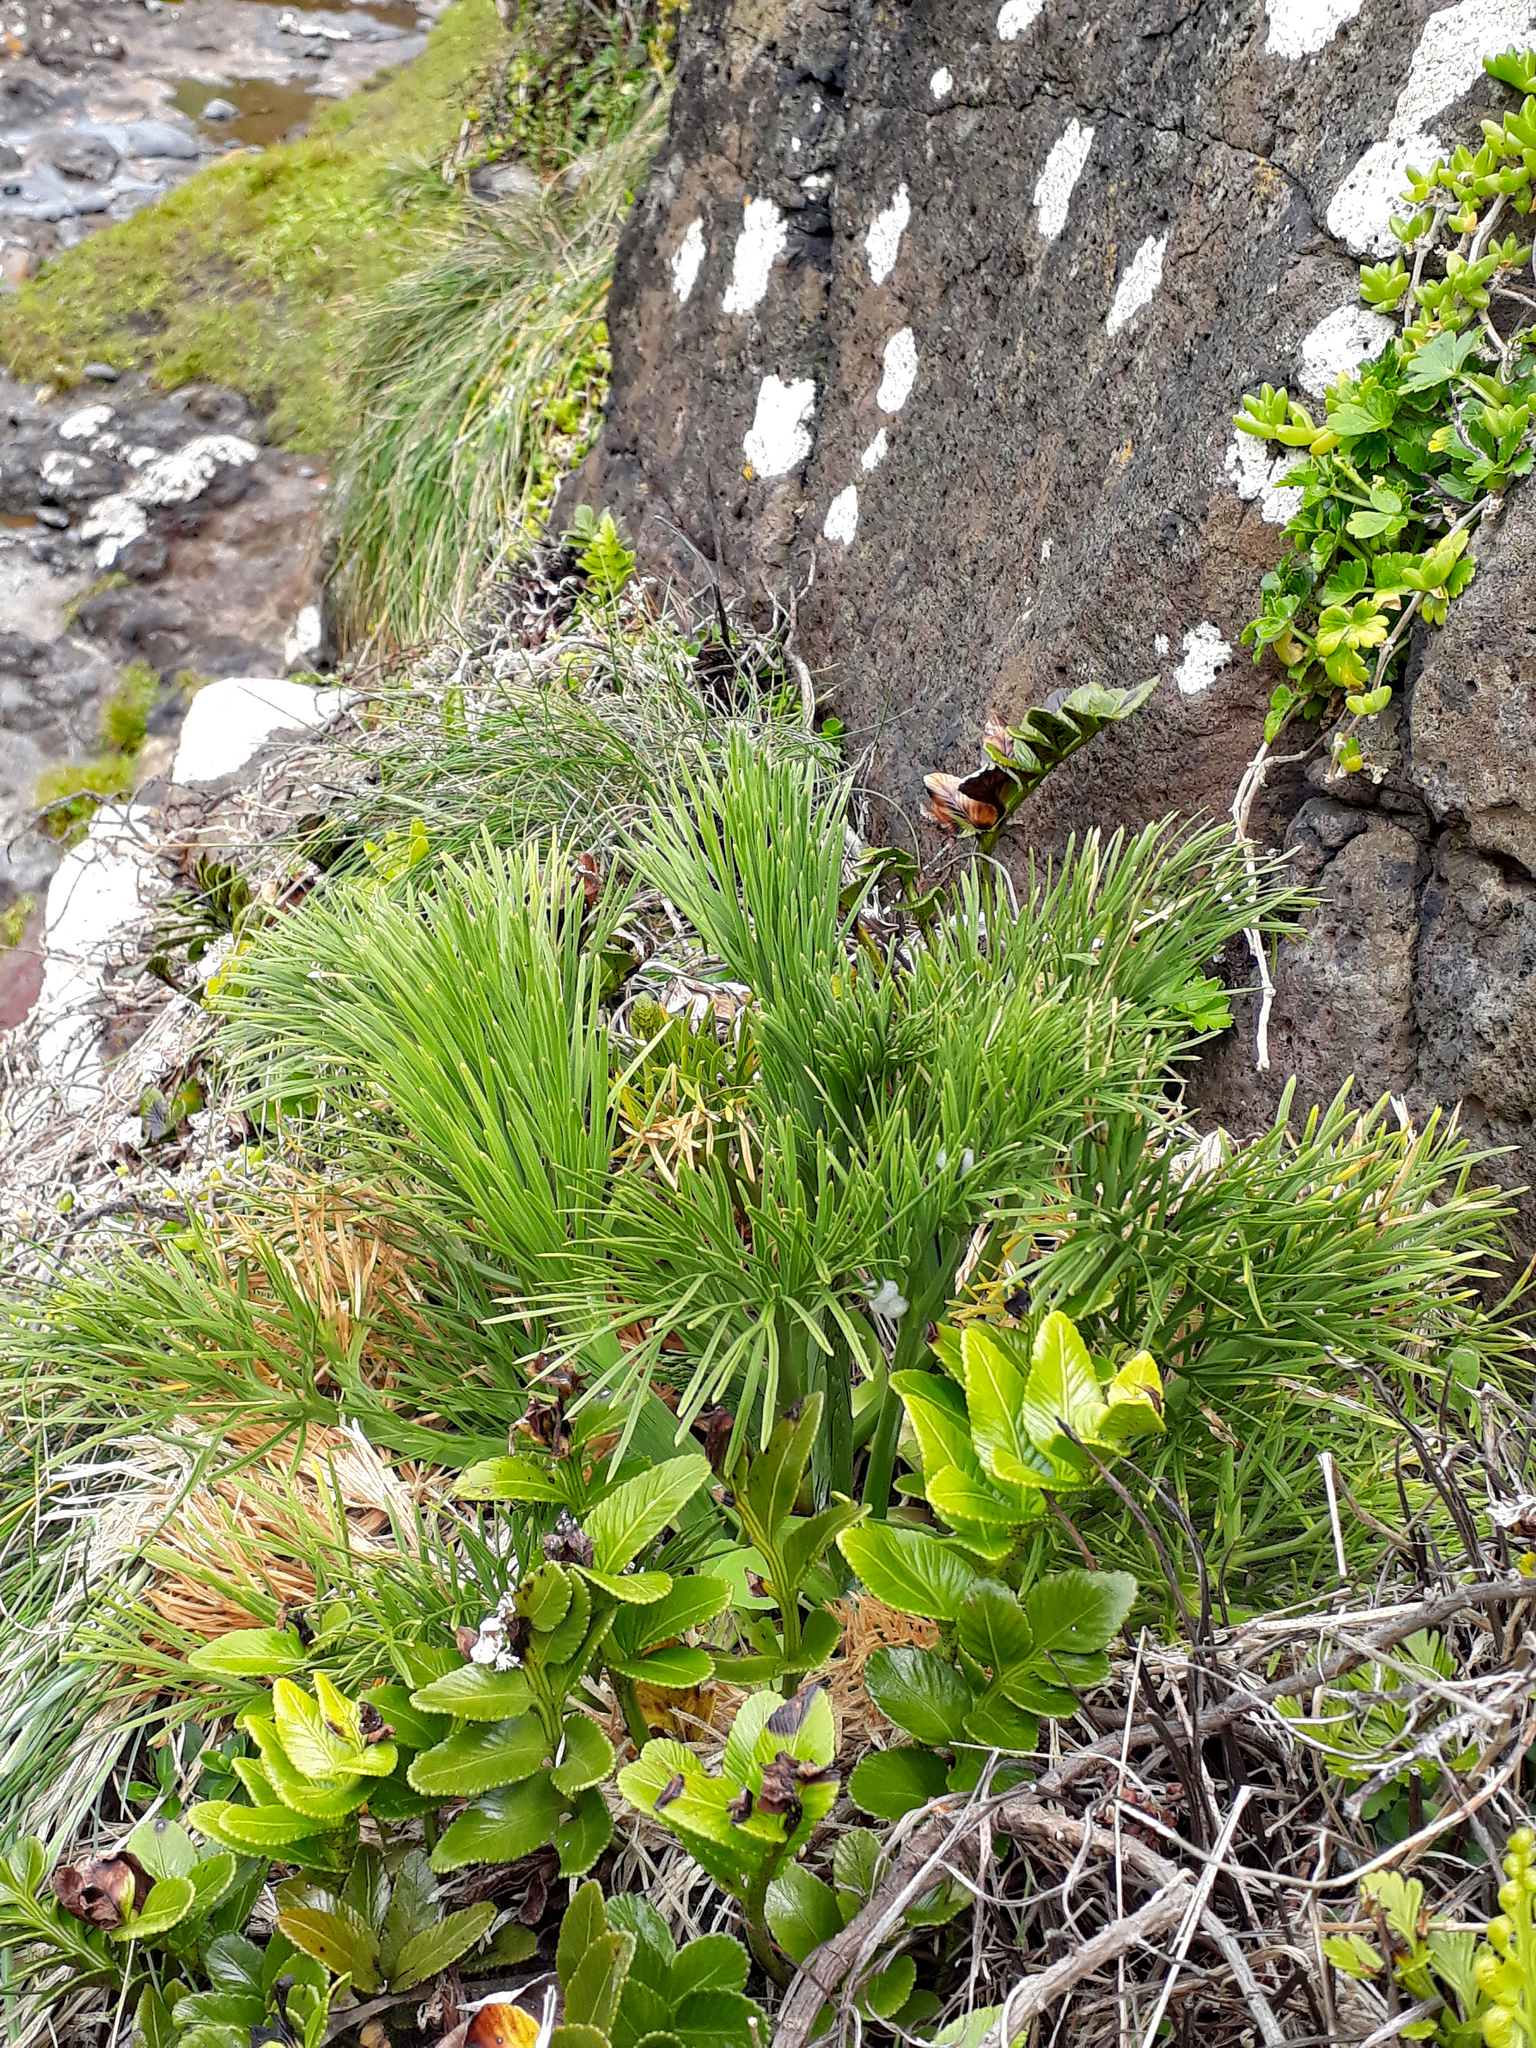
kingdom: Plantae
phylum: Tracheophyta
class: Magnoliopsida
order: Apiales
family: Apiaceae
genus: Aciphylla
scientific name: Aciphylla dieffenbachii
